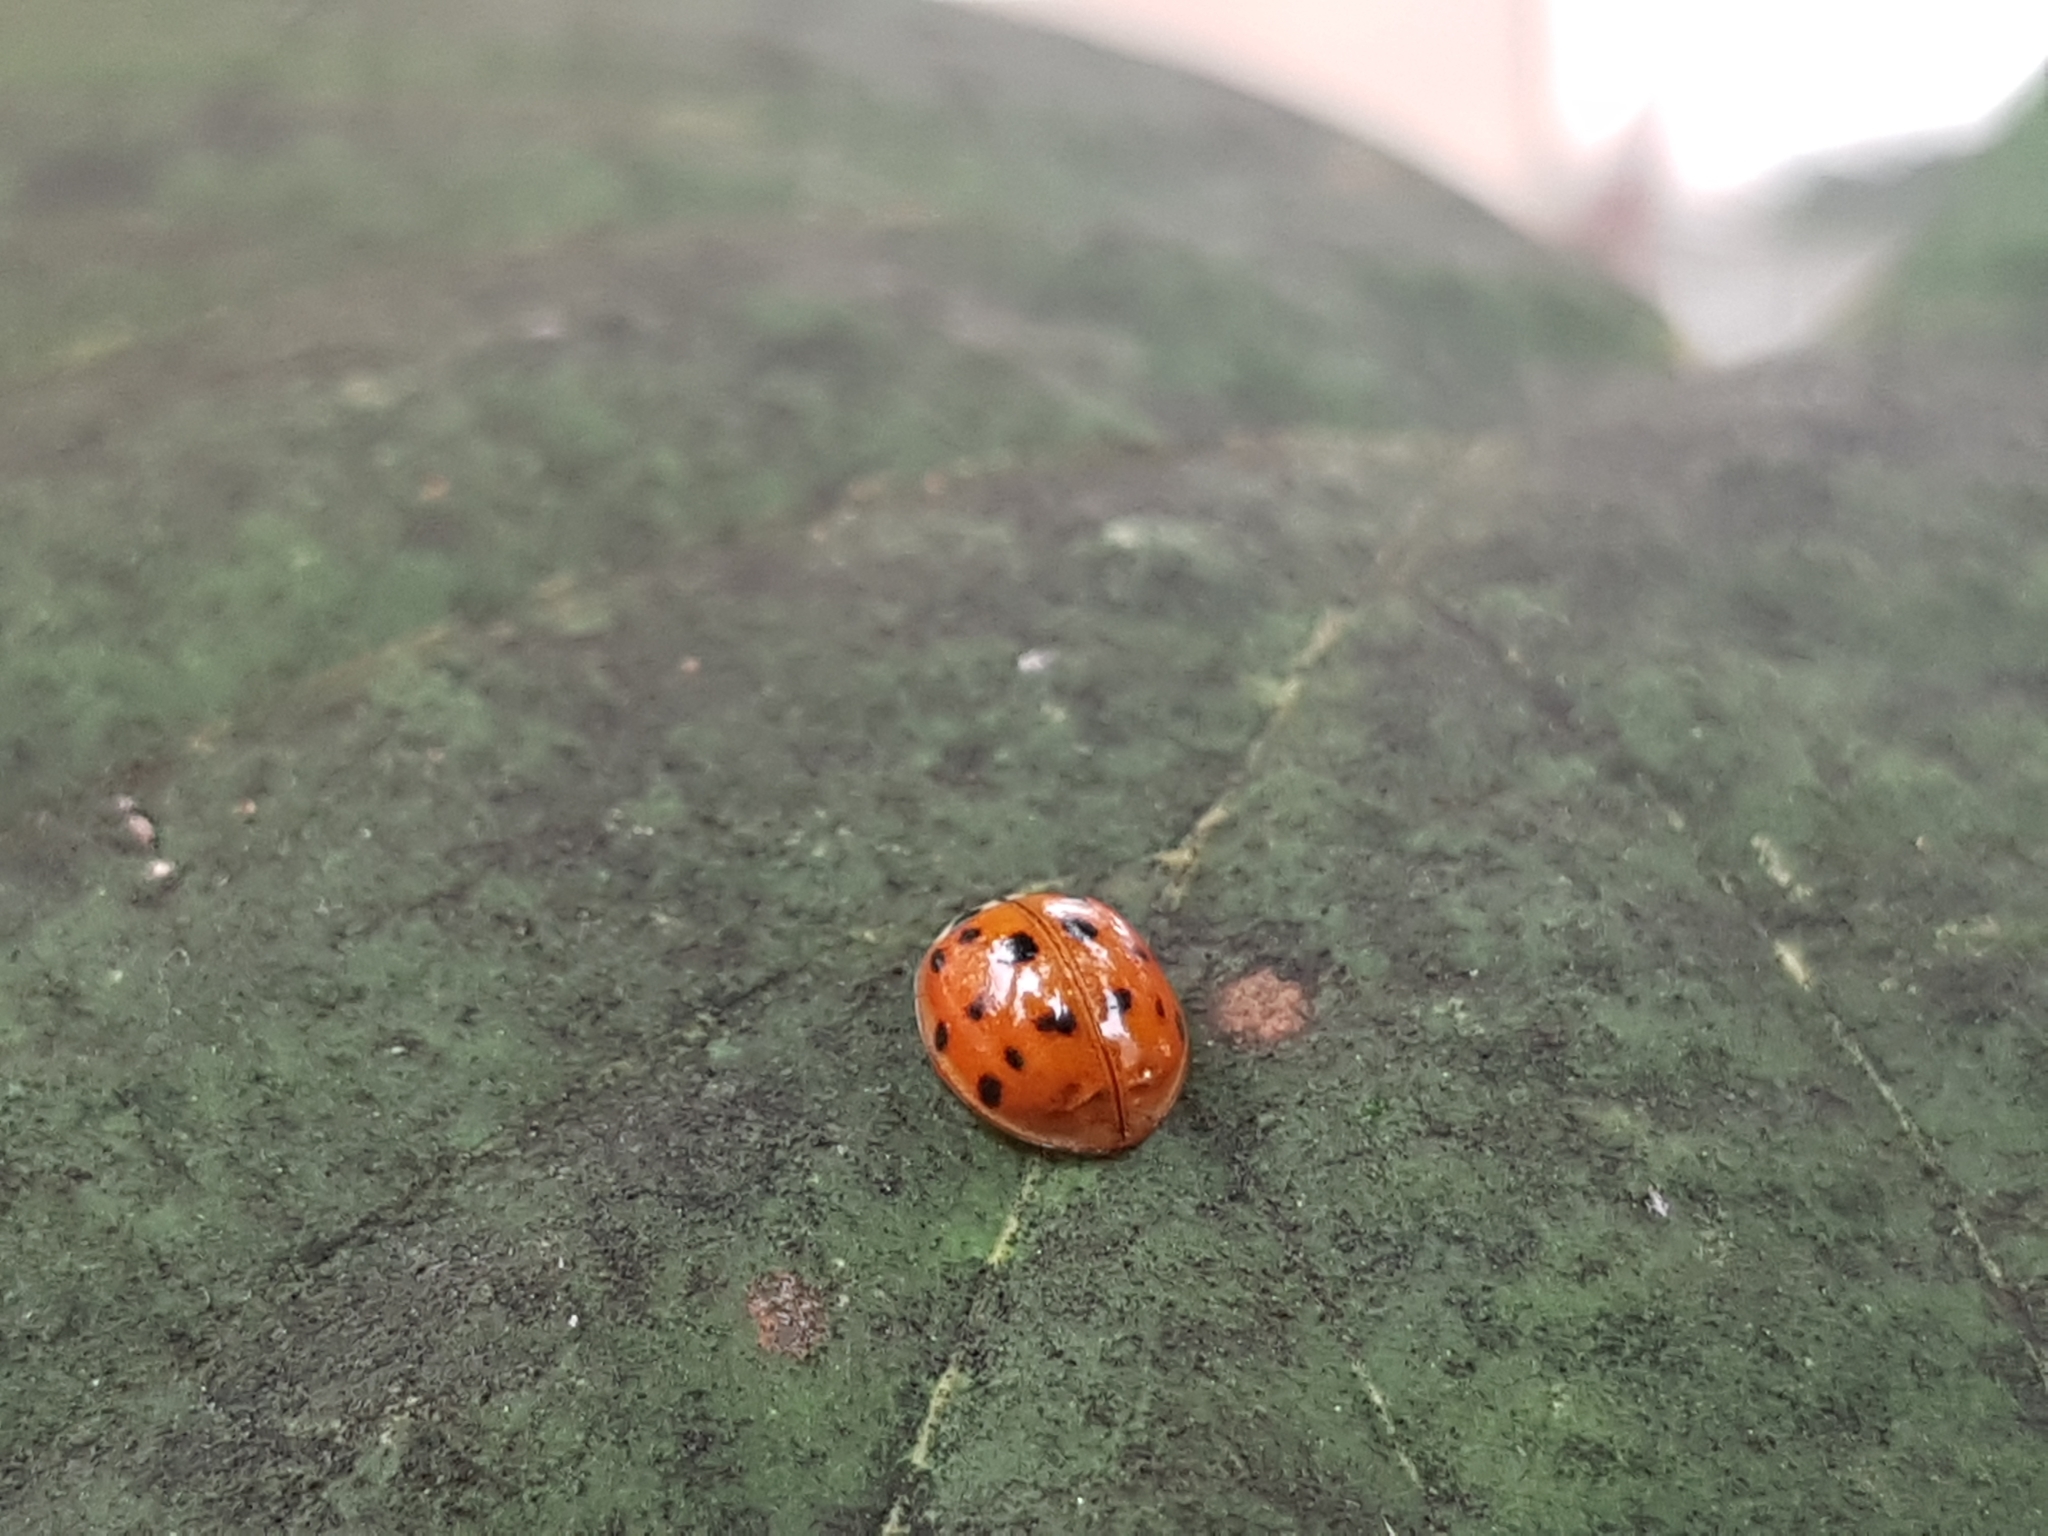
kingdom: Animalia
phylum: Arthropoda
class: Insecta
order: Coleoptera
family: Coccinellidae
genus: Harmonia
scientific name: Harmonia axyridis
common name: Harlequin ladybird
